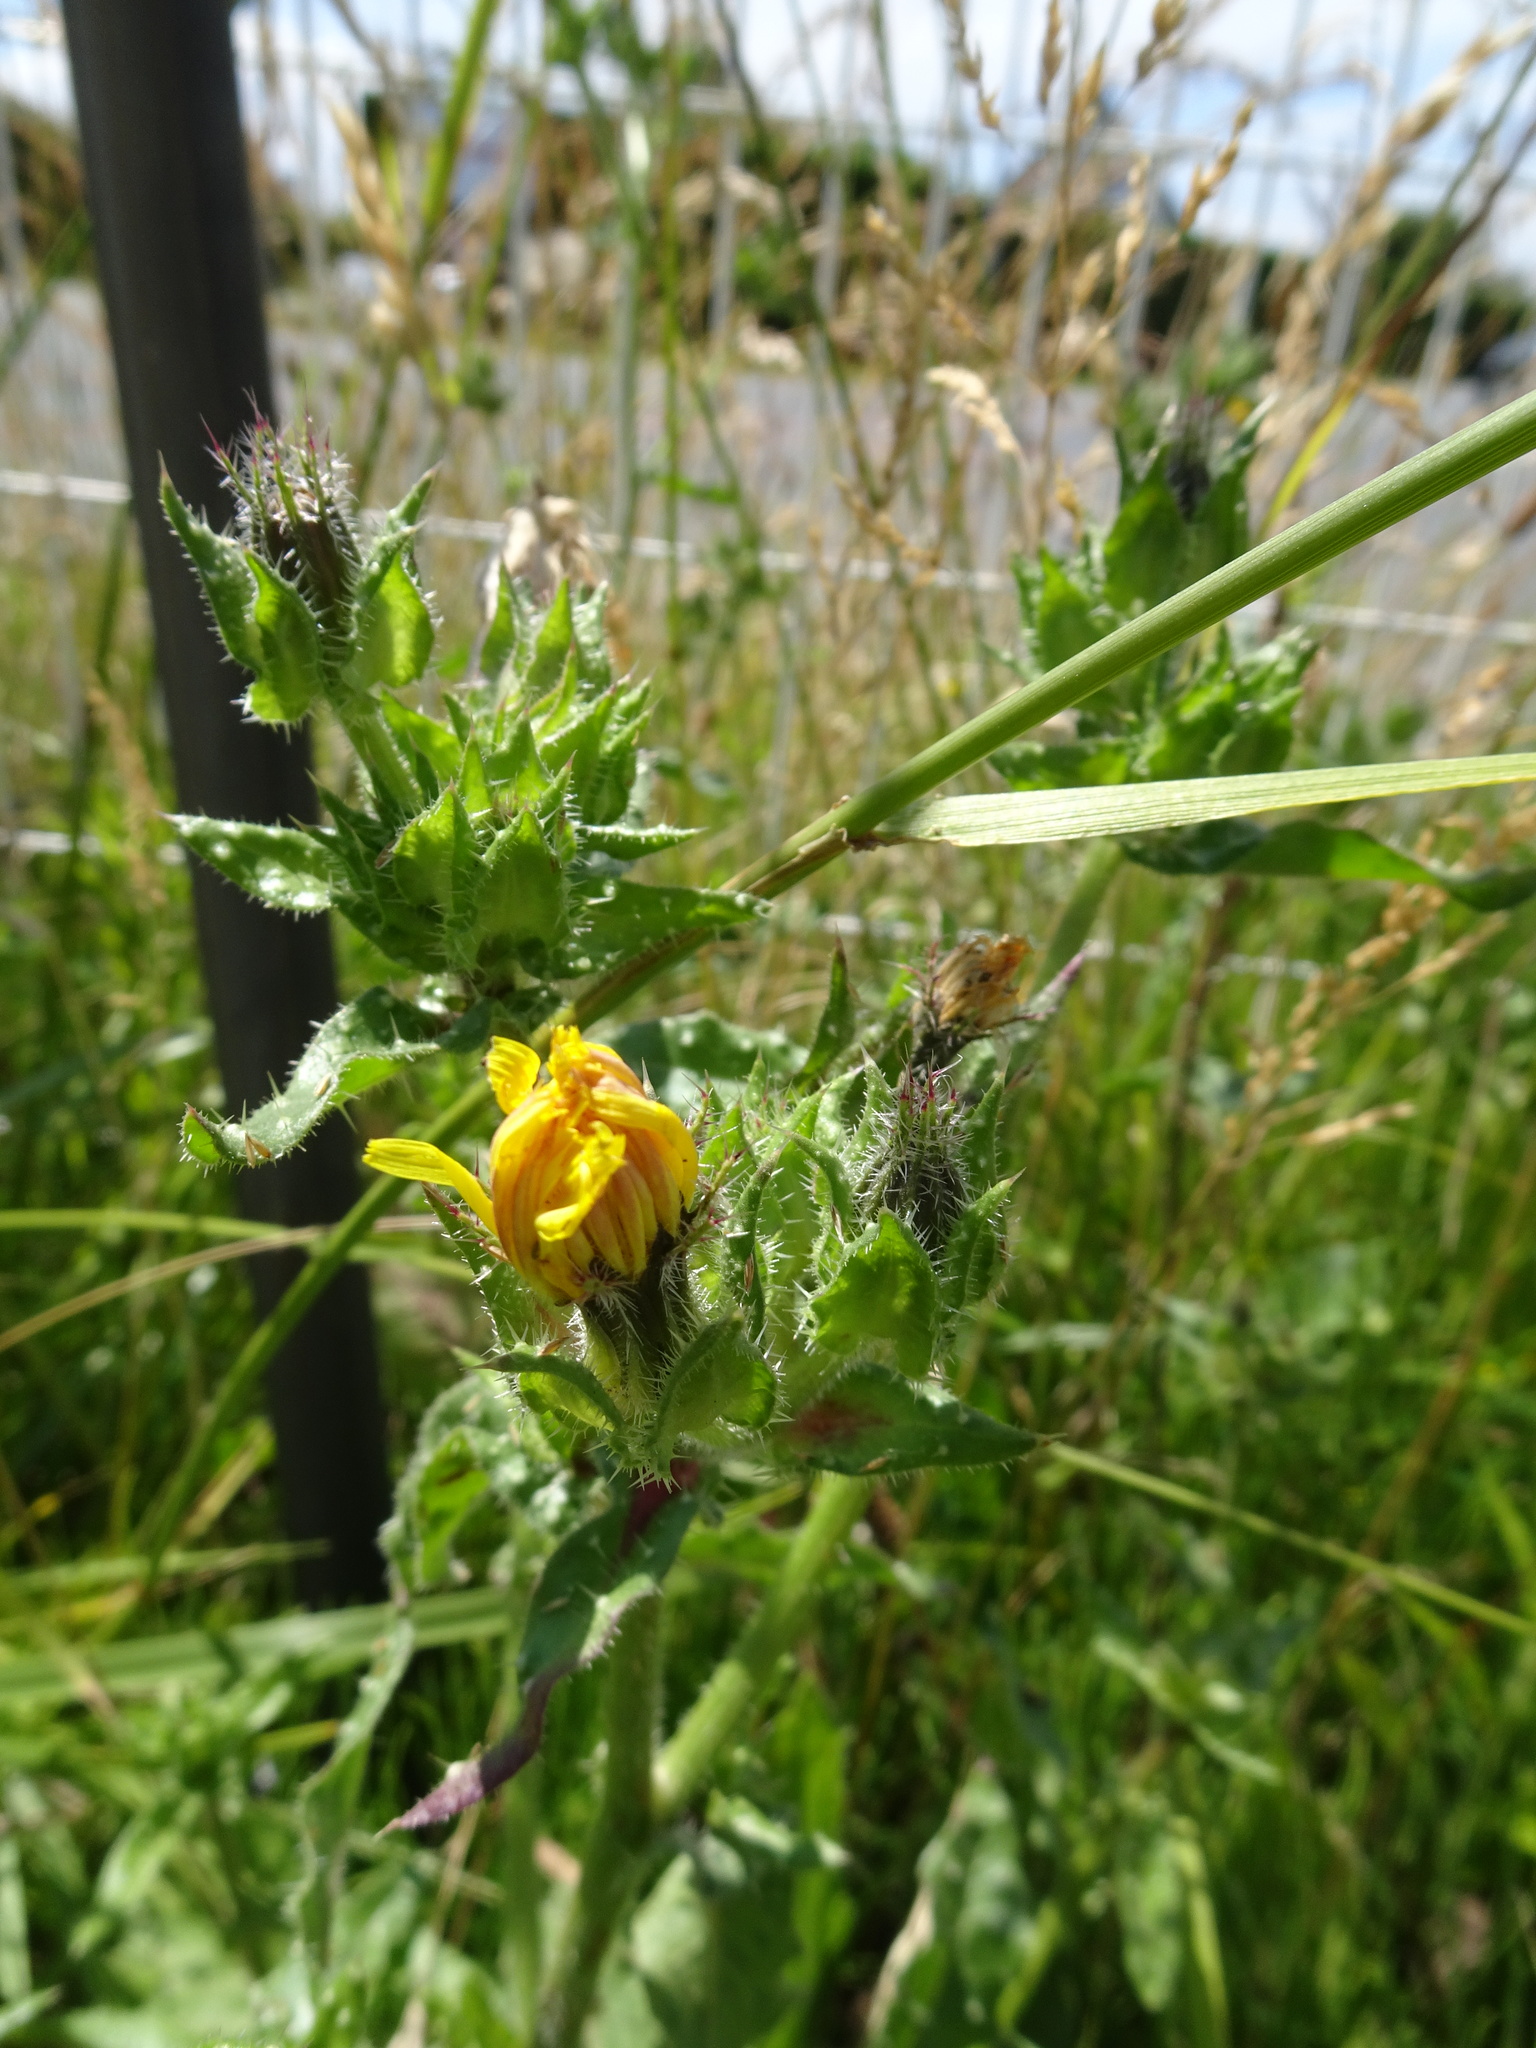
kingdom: Plantae
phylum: Tracheophyta
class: Magnoliopsida
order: Asterales
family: Asteraceae
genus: Helminthotheca
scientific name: Helminthotheca echioides
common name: Ox-tongue
